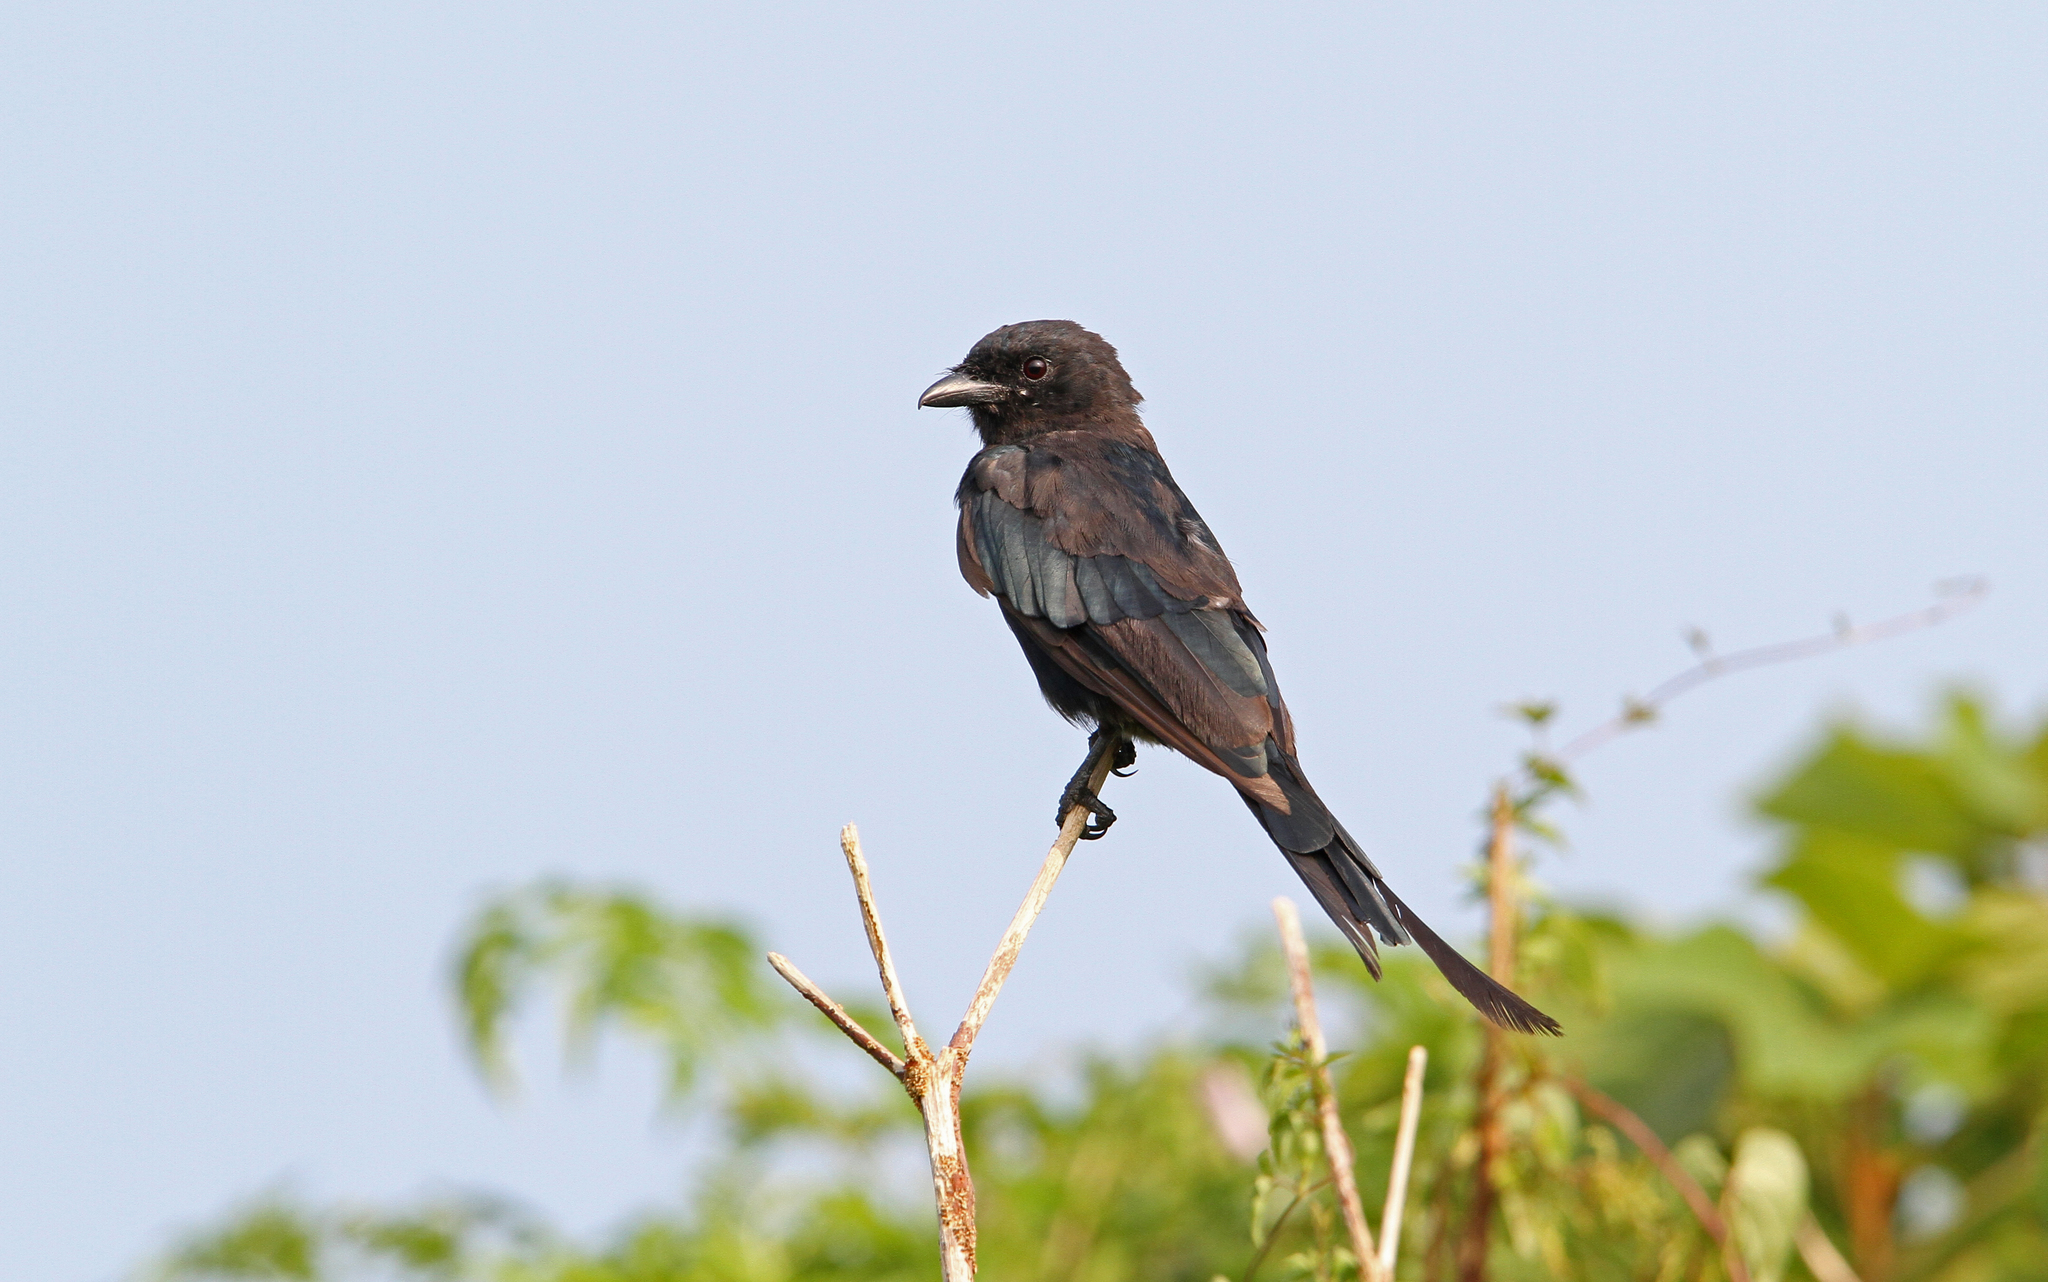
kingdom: Animalia
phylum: Chordata
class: Aves
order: Passeriformes
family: Dicruridae
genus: Dicrurus
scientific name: Dicrurus macrocercus
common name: Black drongo
